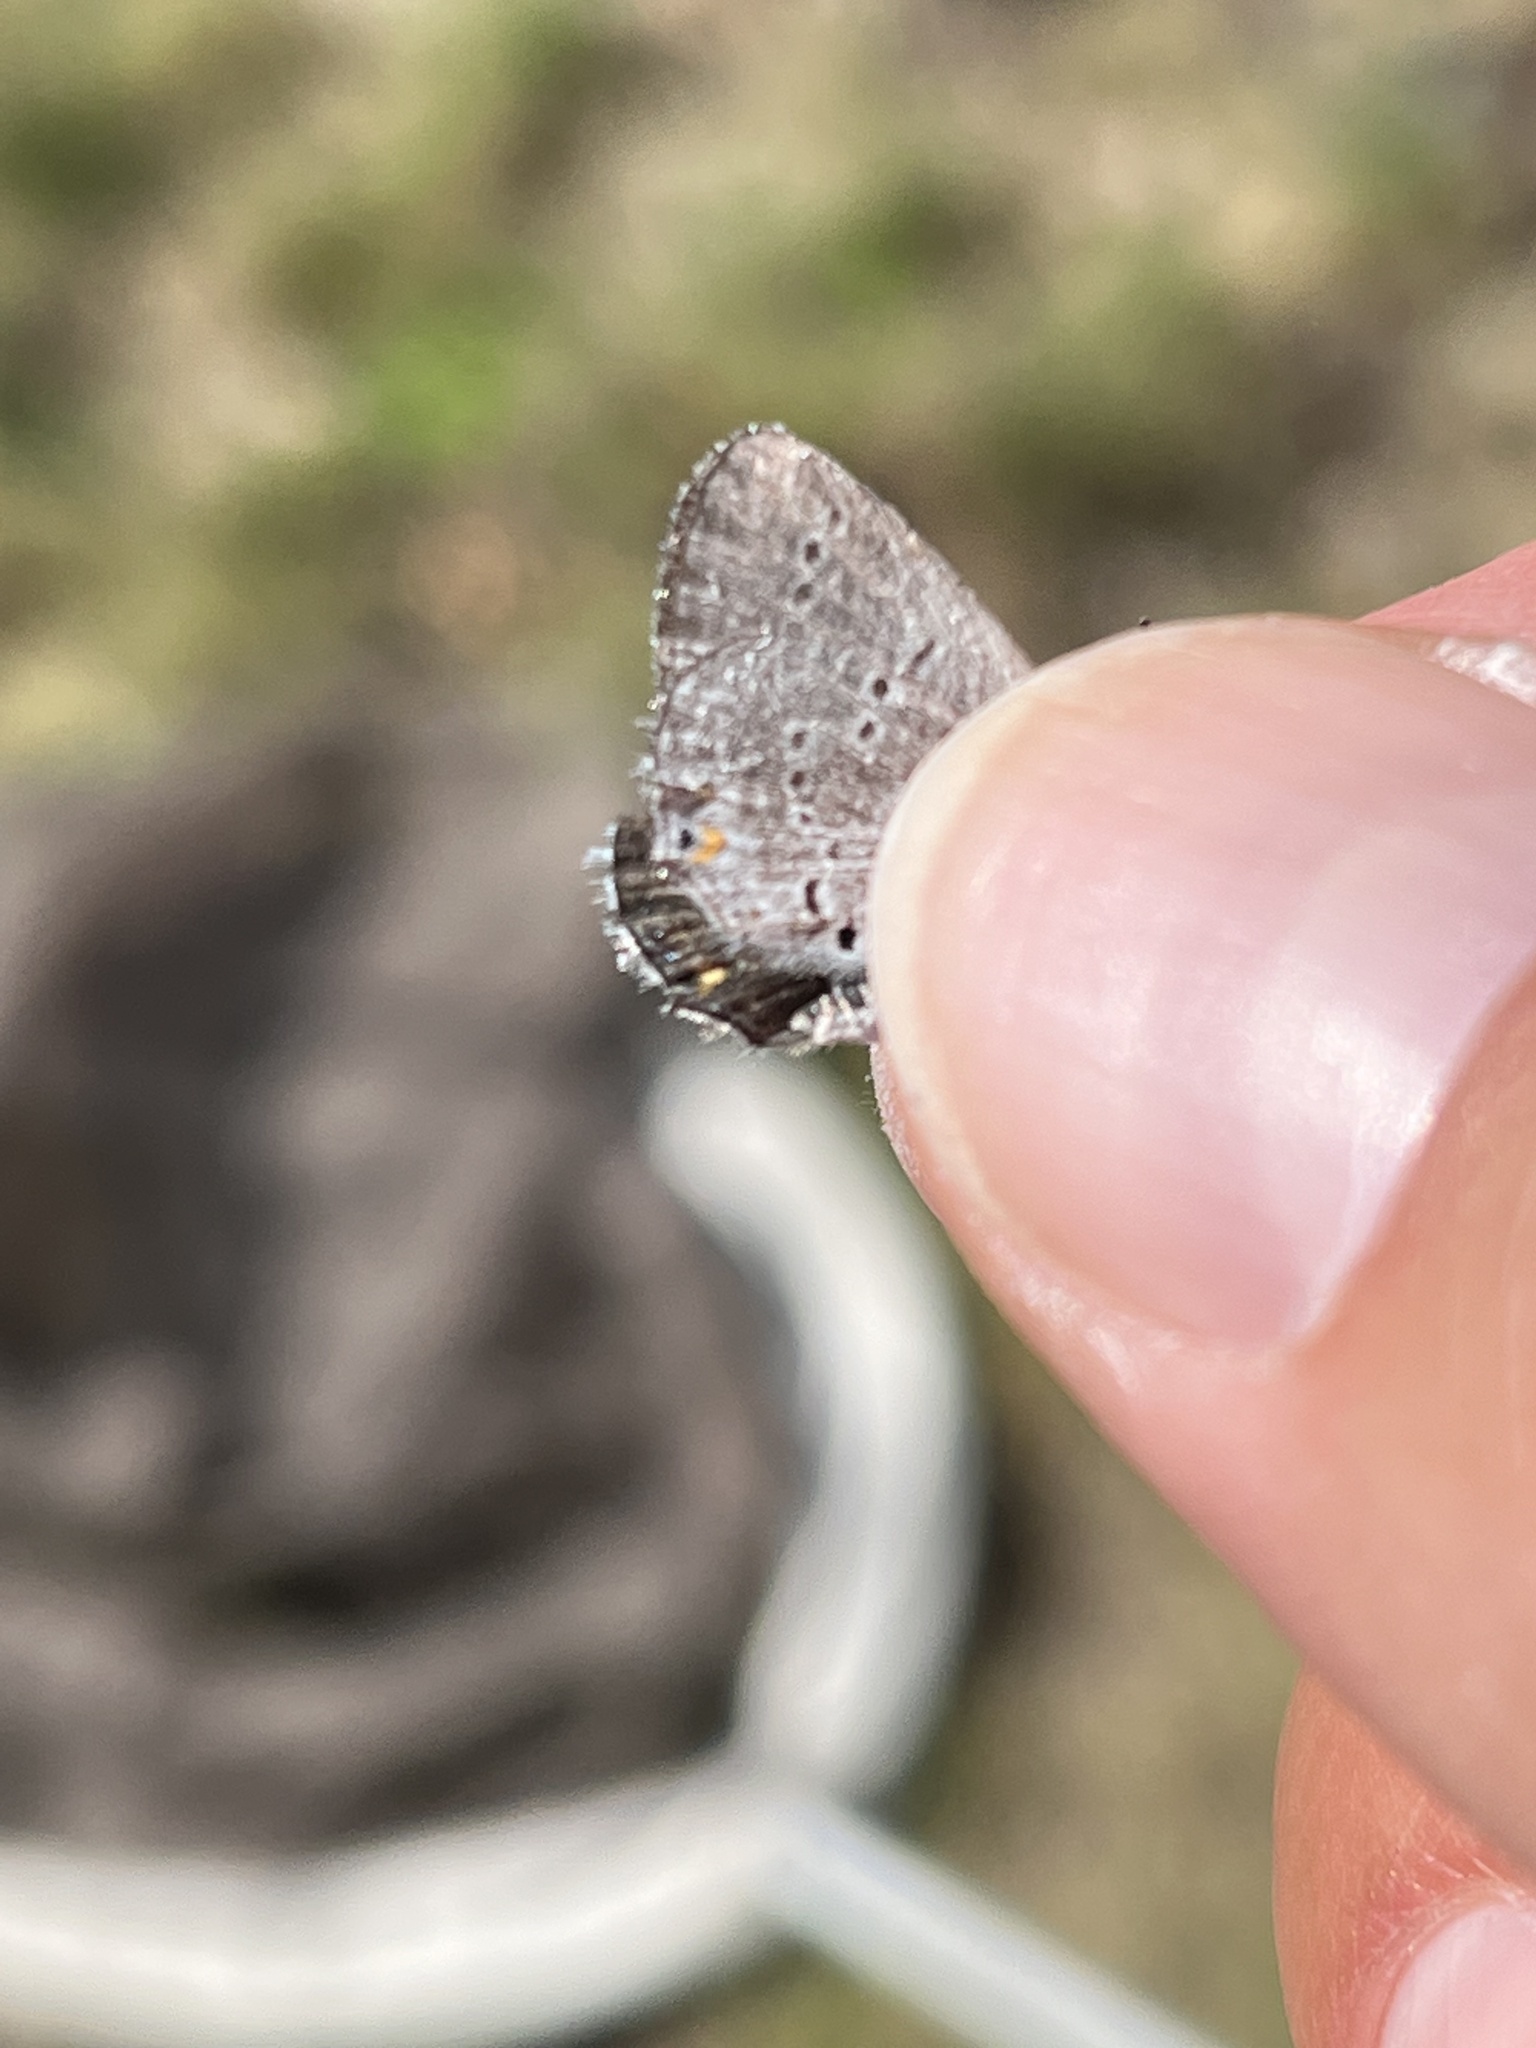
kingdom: Animalia
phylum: Arthropoda
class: Insecta
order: Lepidoptera
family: Lycaenidae
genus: Elkalyce
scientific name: Elkalyce amyntula
